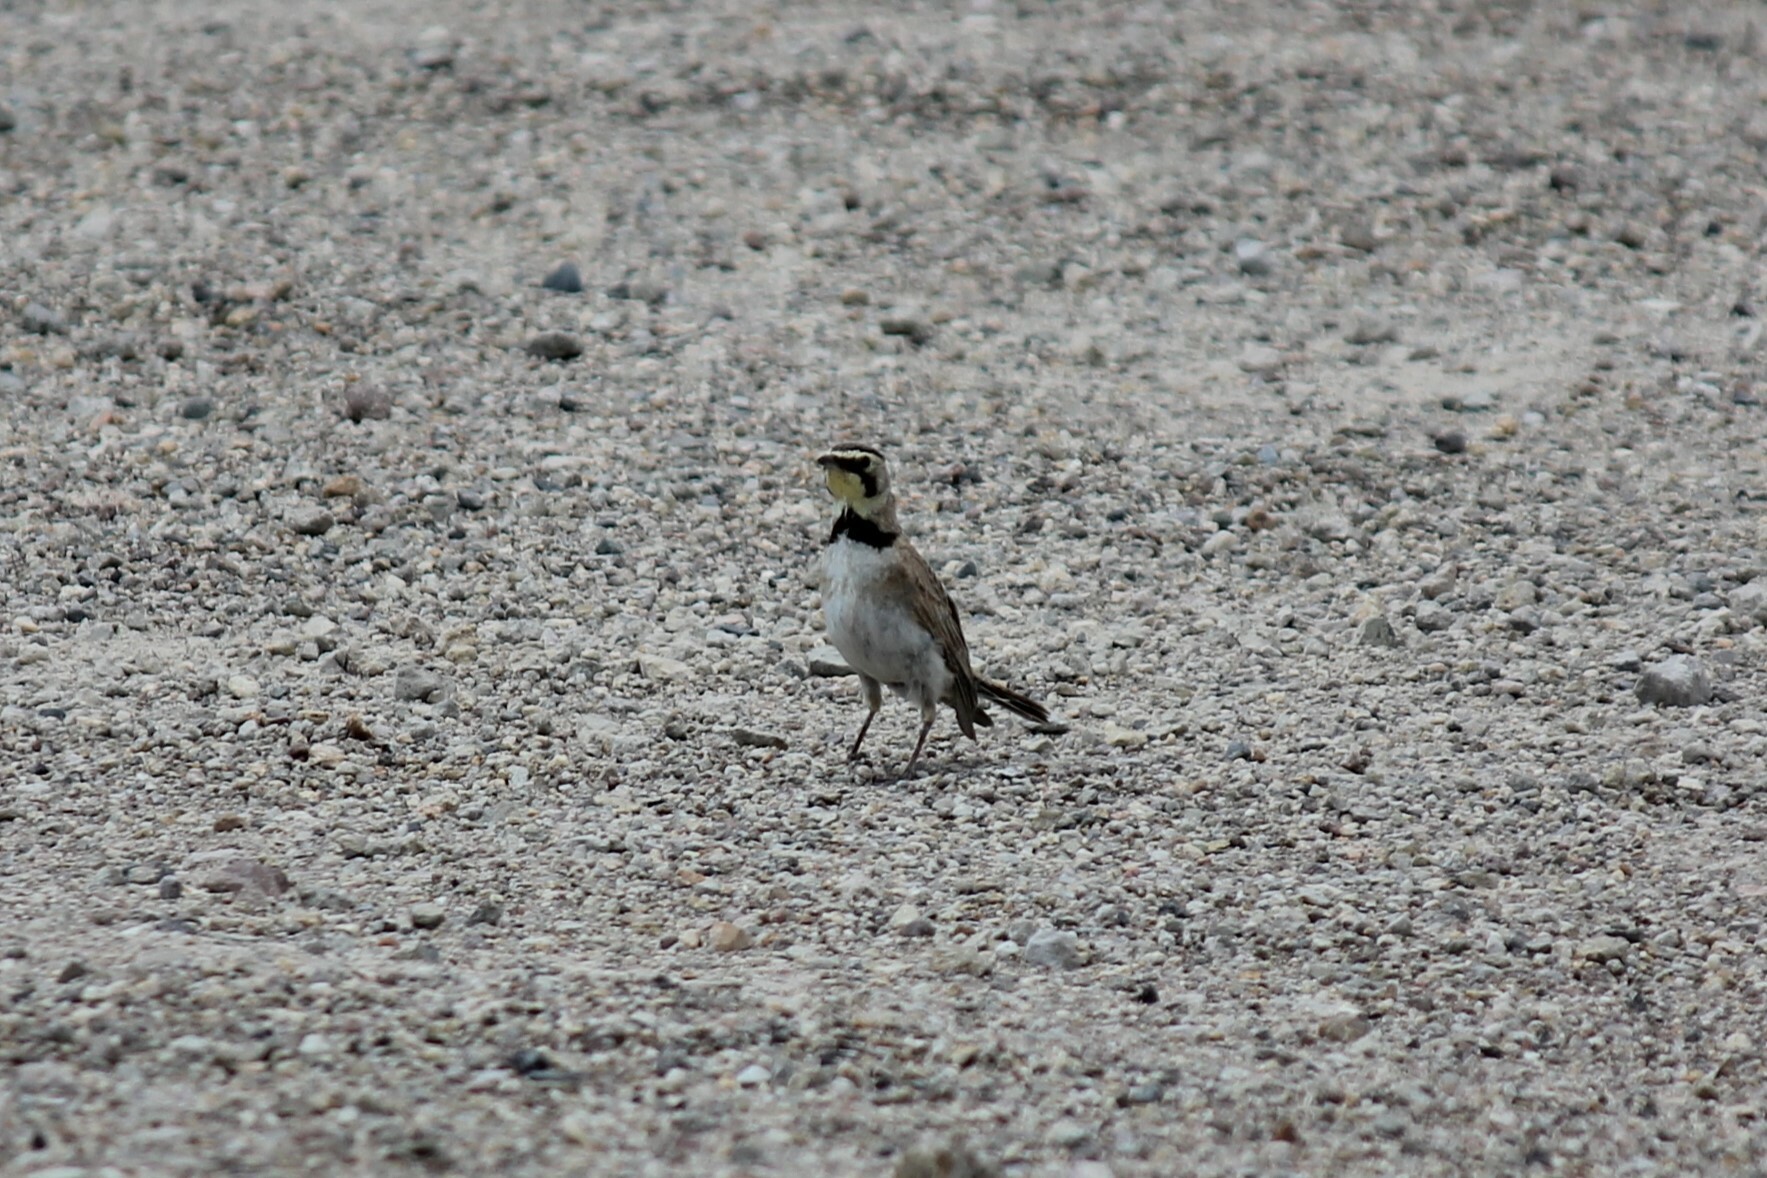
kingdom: Animalia
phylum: Chordata
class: Aves
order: Passeriformes
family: Alaudidae
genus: Eremophila
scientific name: Eremophila alpestris
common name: Horned lark
